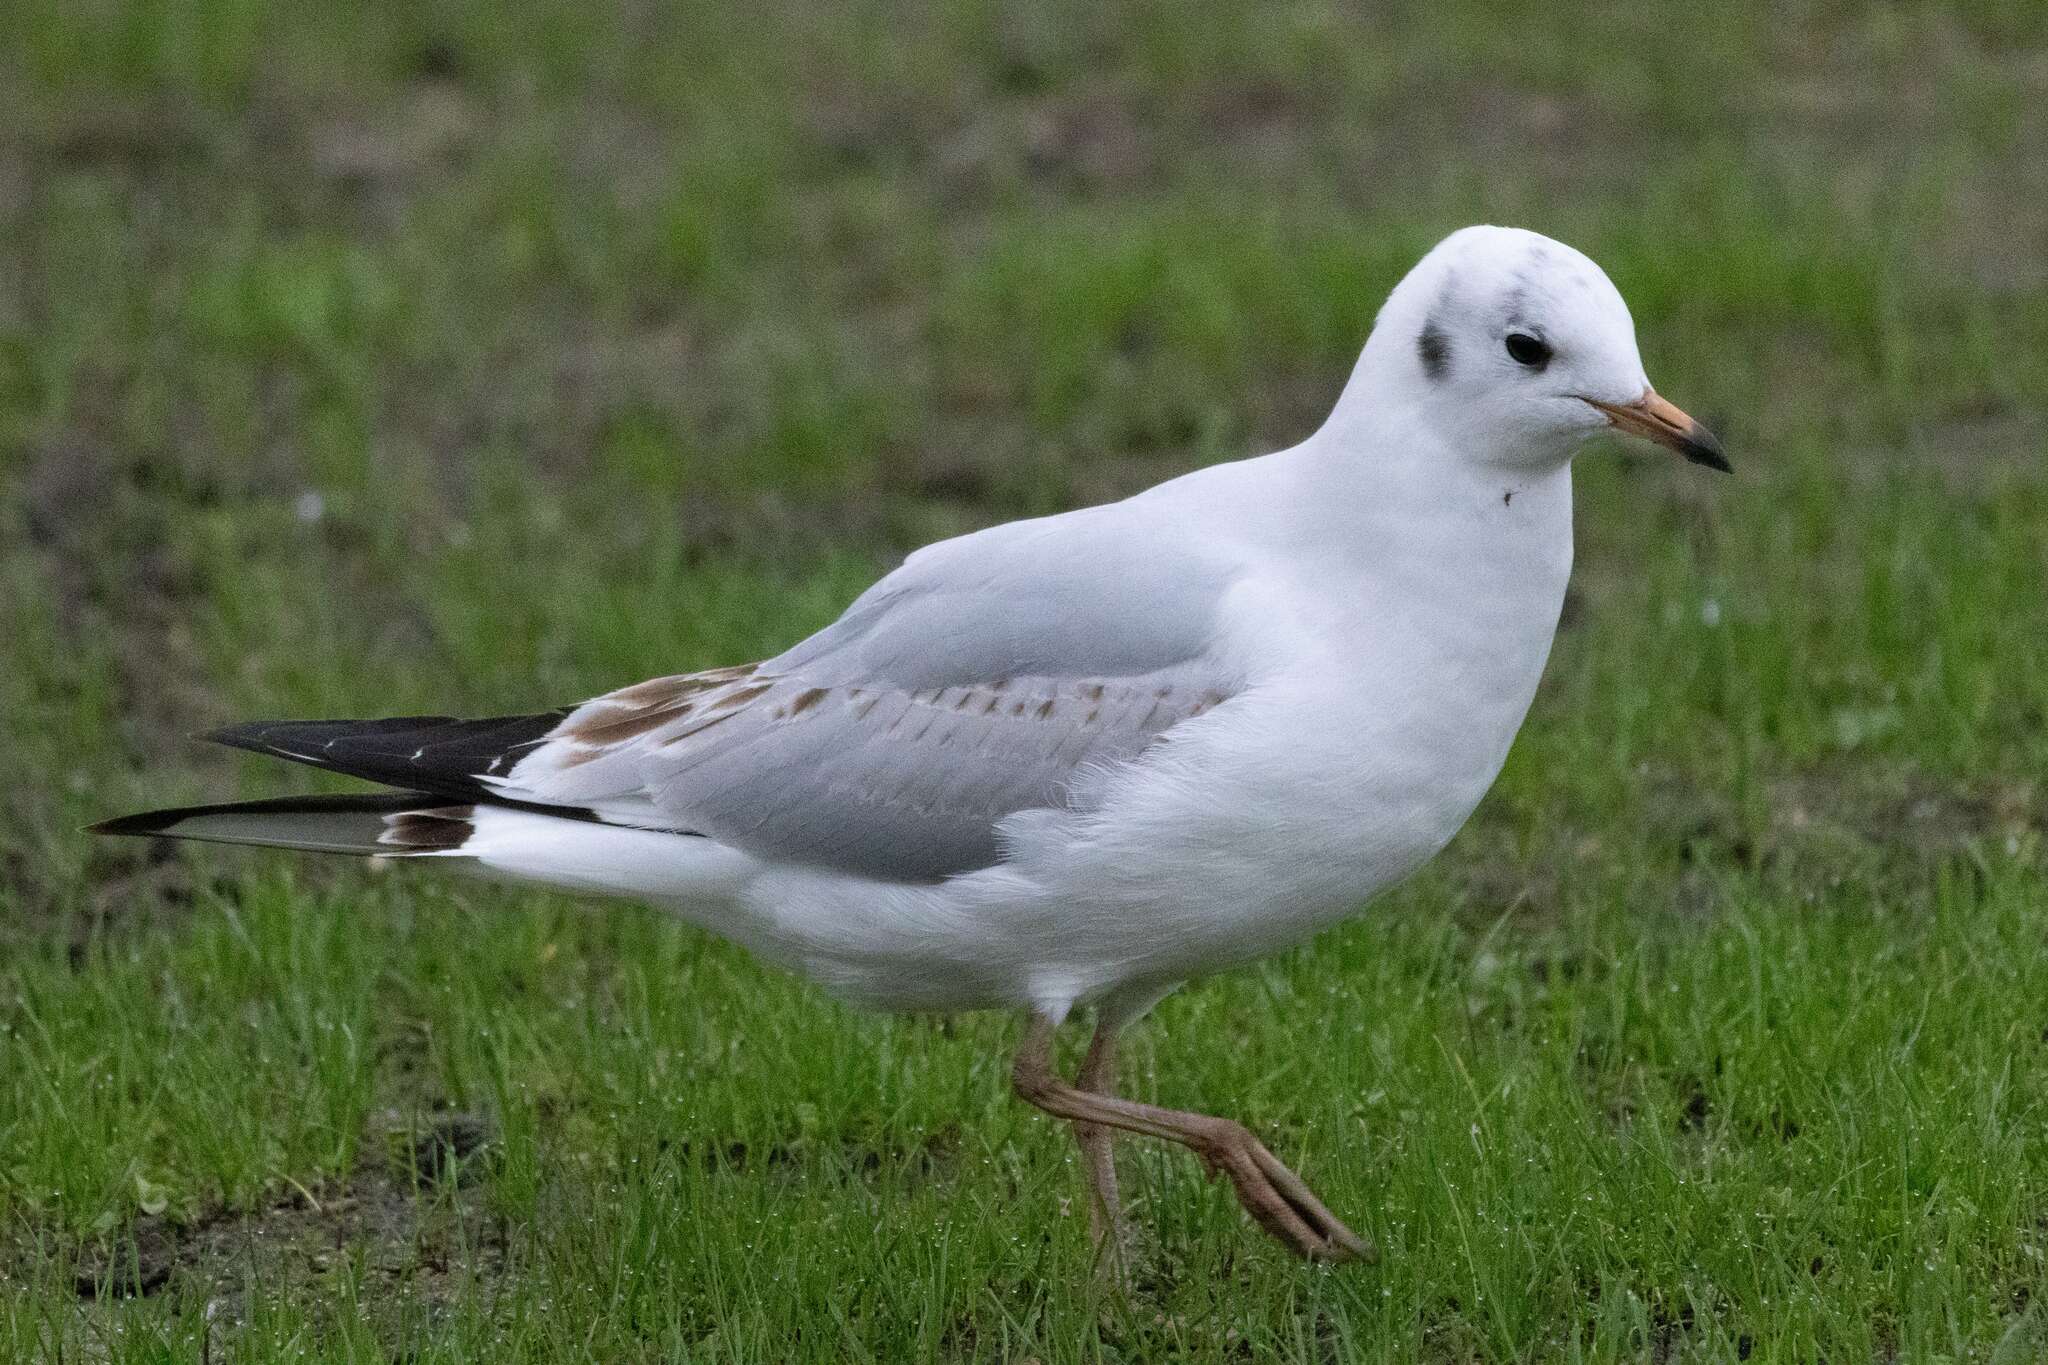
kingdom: Animalia
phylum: Chordata
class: Aves
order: Charadriiformes
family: Laridae
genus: Chroicocephalus
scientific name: Chroicocephalus ridibundus
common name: Black-headed gull
